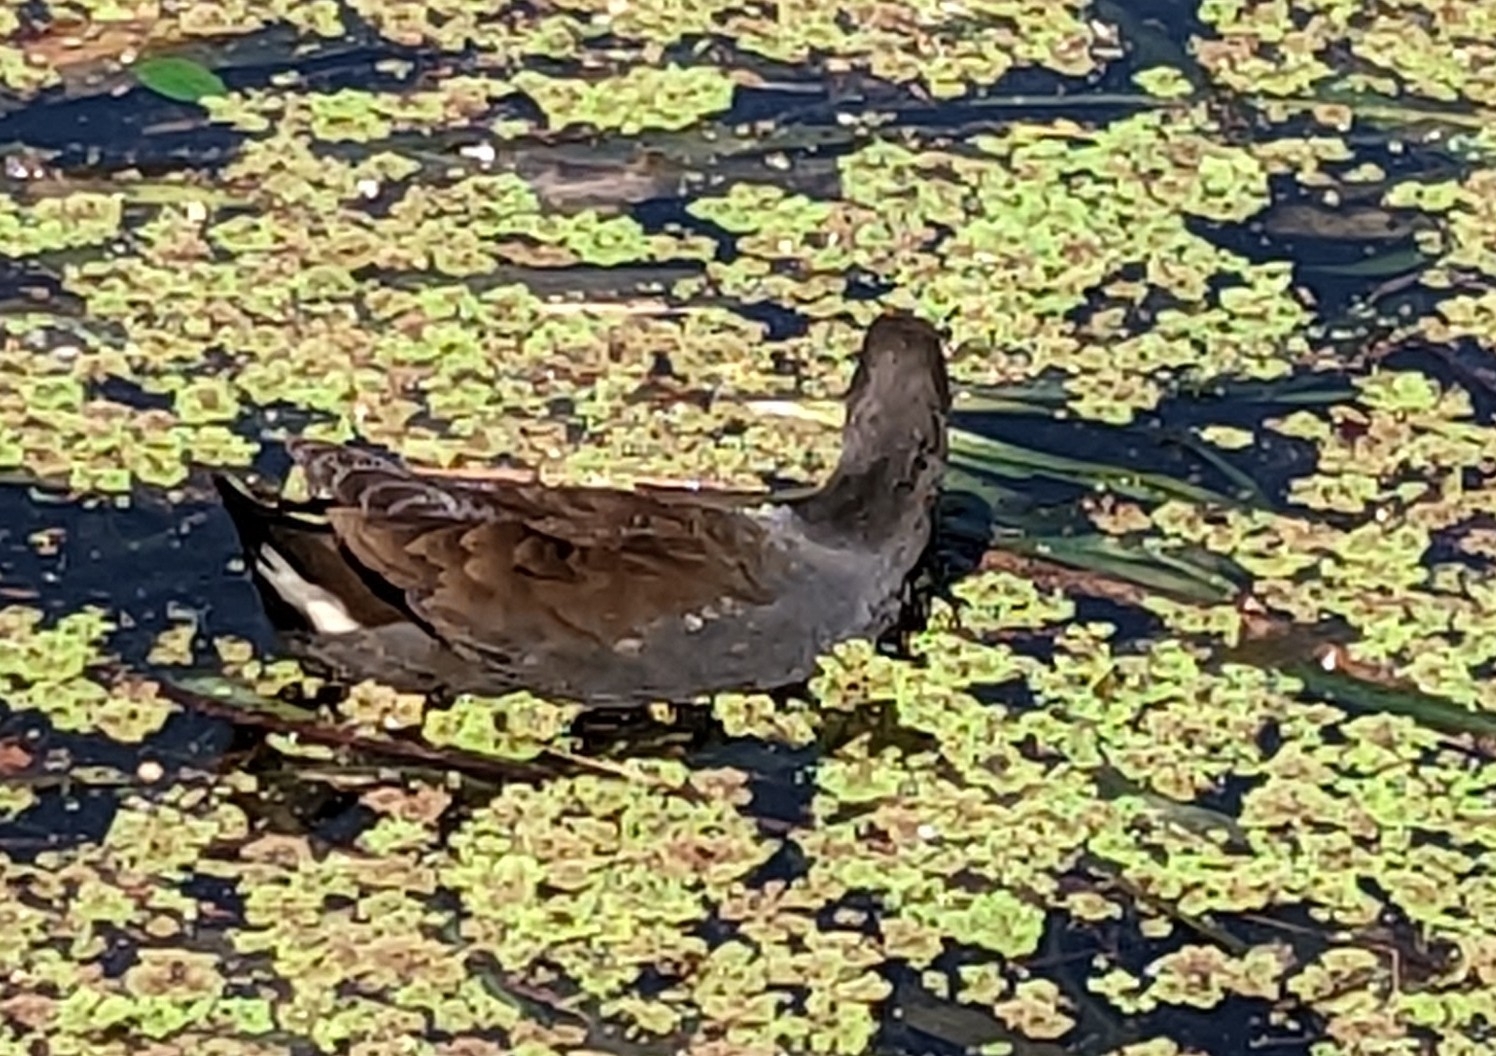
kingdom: Animalia
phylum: Chordata
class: Aves
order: Gruiformes
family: Rallidae
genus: Gallinula
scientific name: Gallinula tenebrosa
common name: Dusky moorhen
